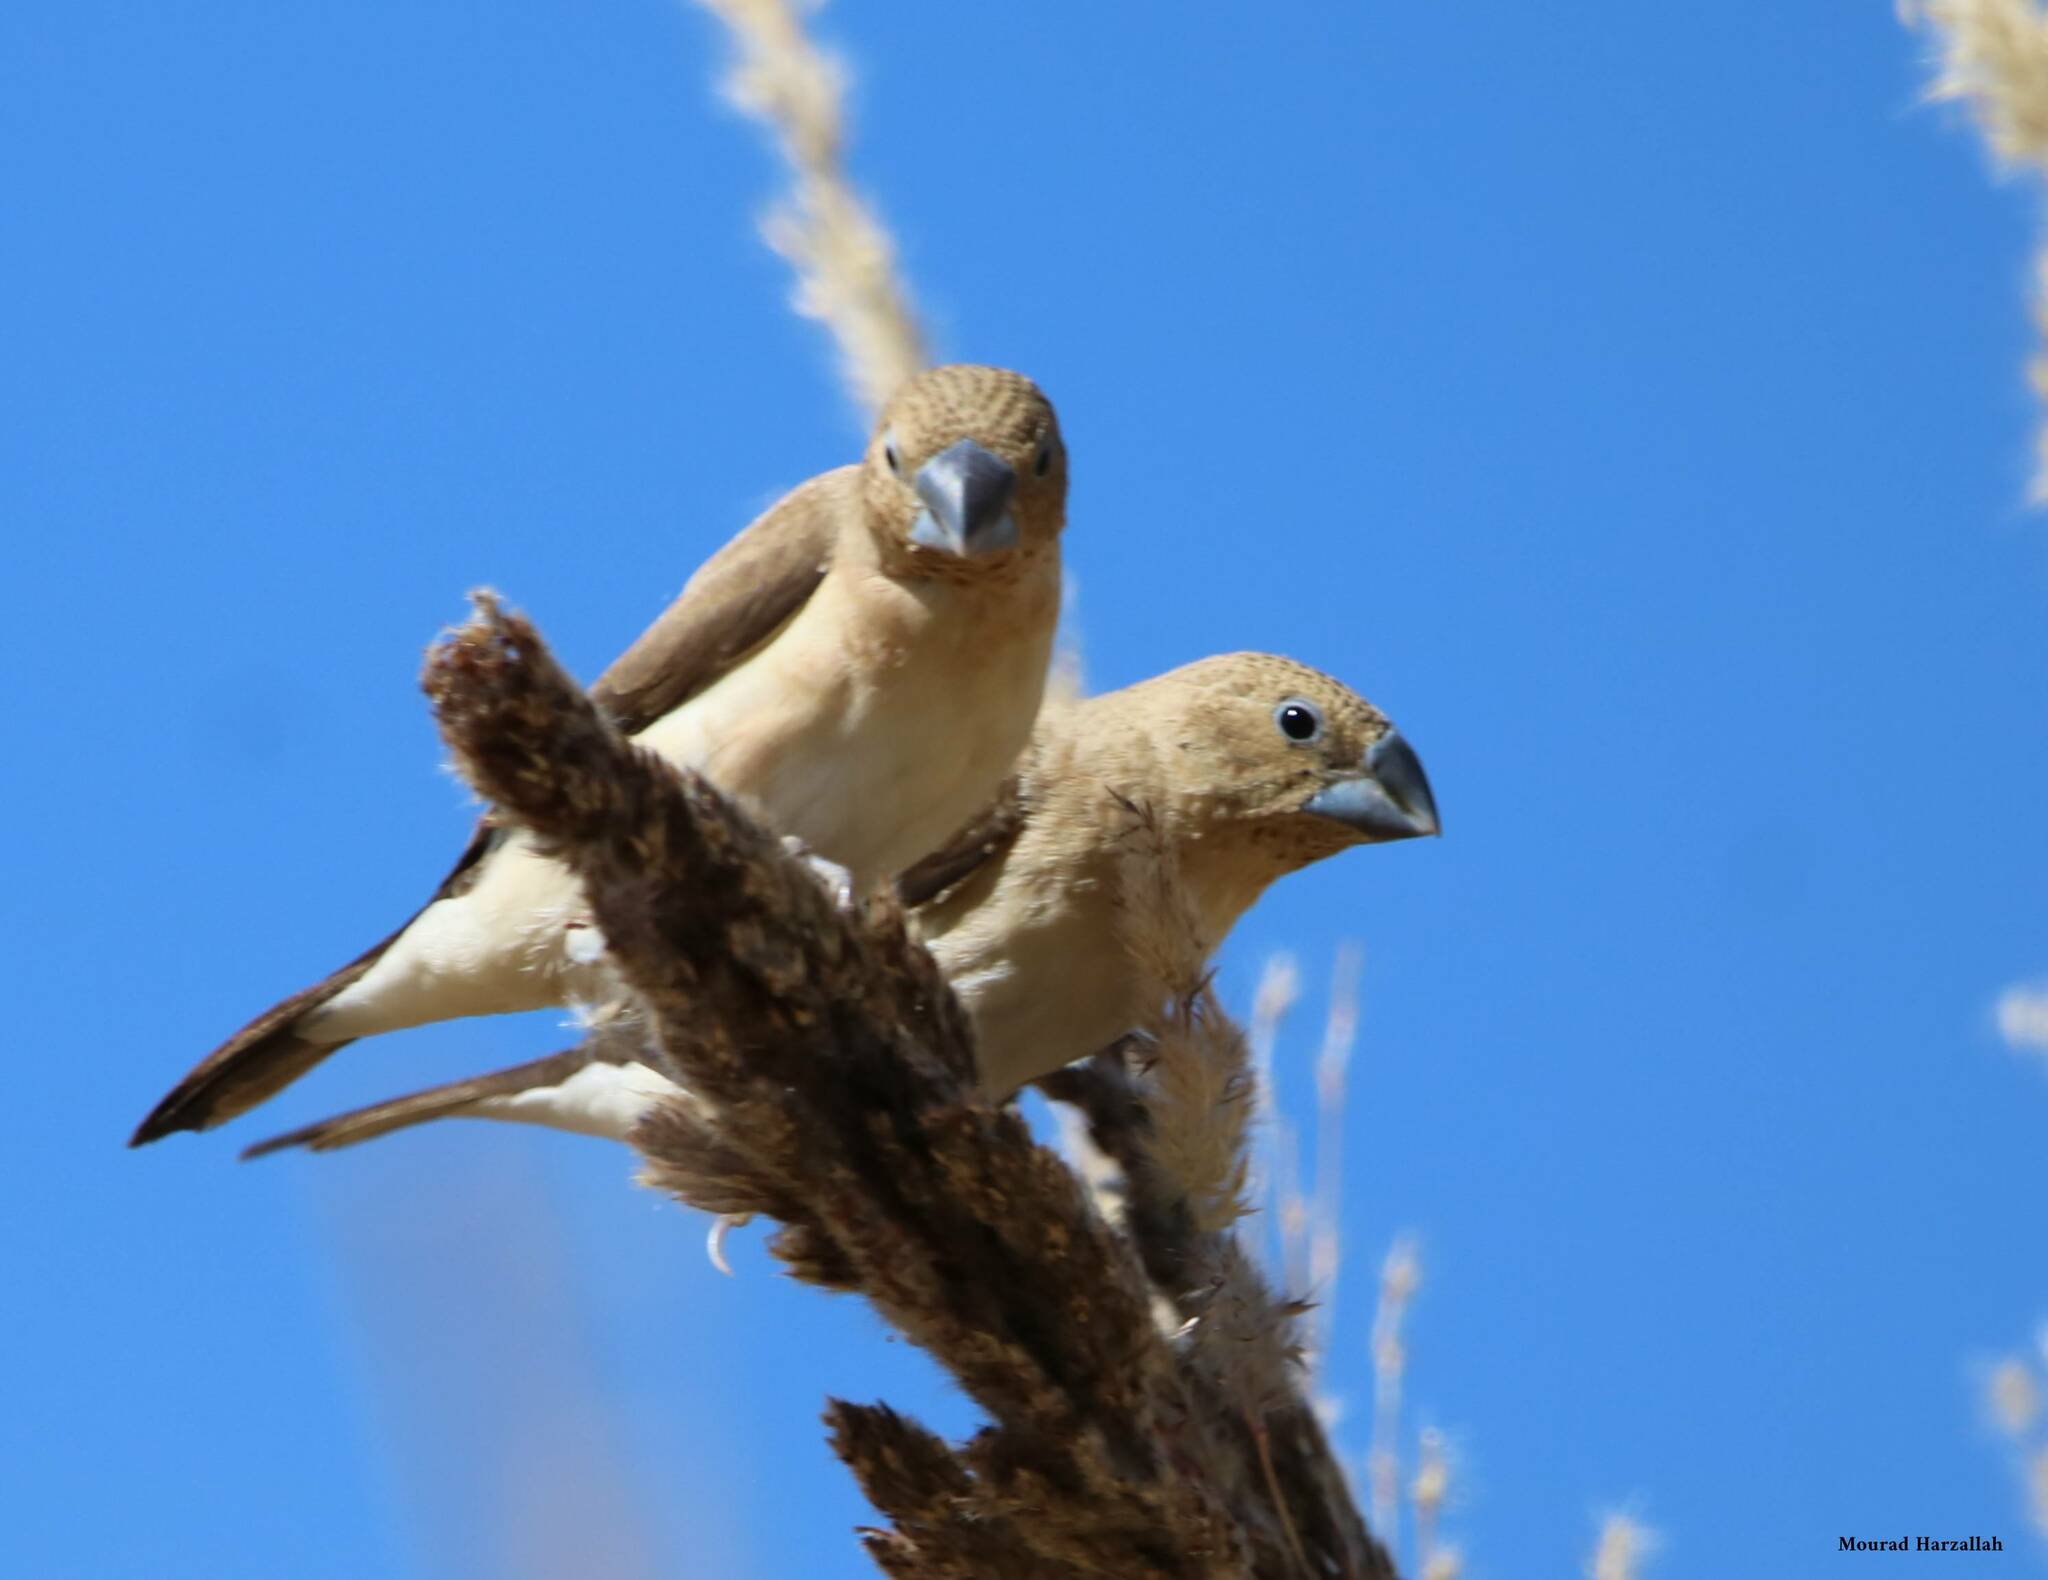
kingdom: Animalia
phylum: Chordata
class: Aves
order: Passeriformes
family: Estrildidae
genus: Euodice
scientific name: Euodice cantans
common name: African silverbill
